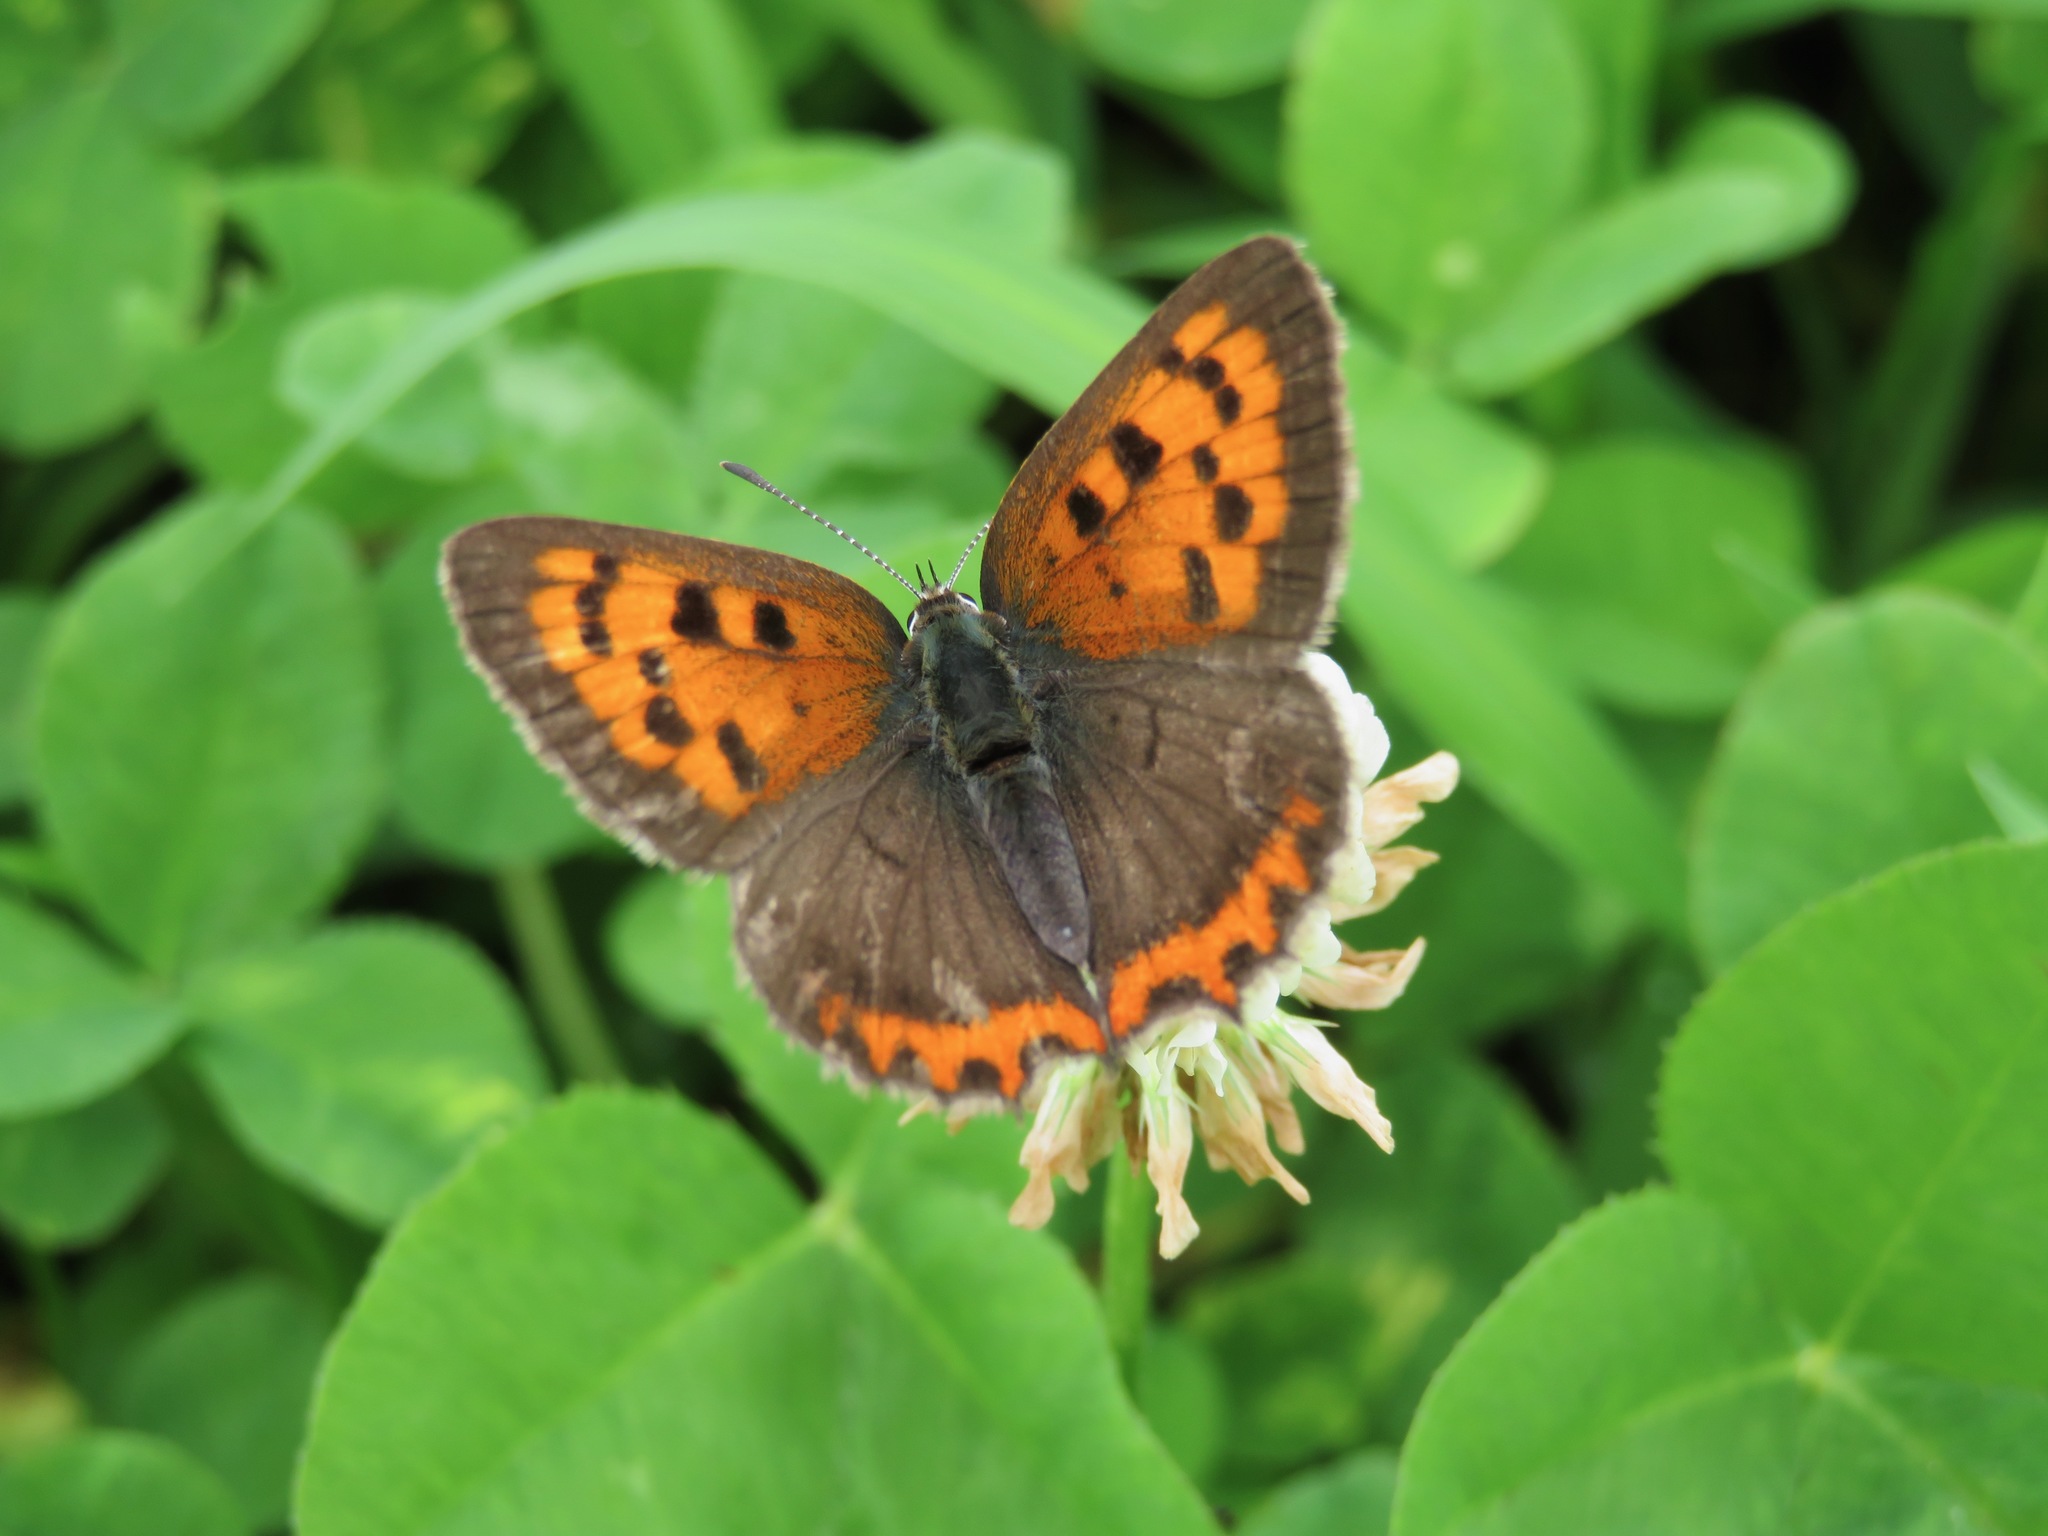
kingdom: Animalia
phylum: Arthropoda
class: Insecta
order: Lepidoptera
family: Lycaenidae
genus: Lycaena
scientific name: Lycaena phlaeas
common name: Small copper
